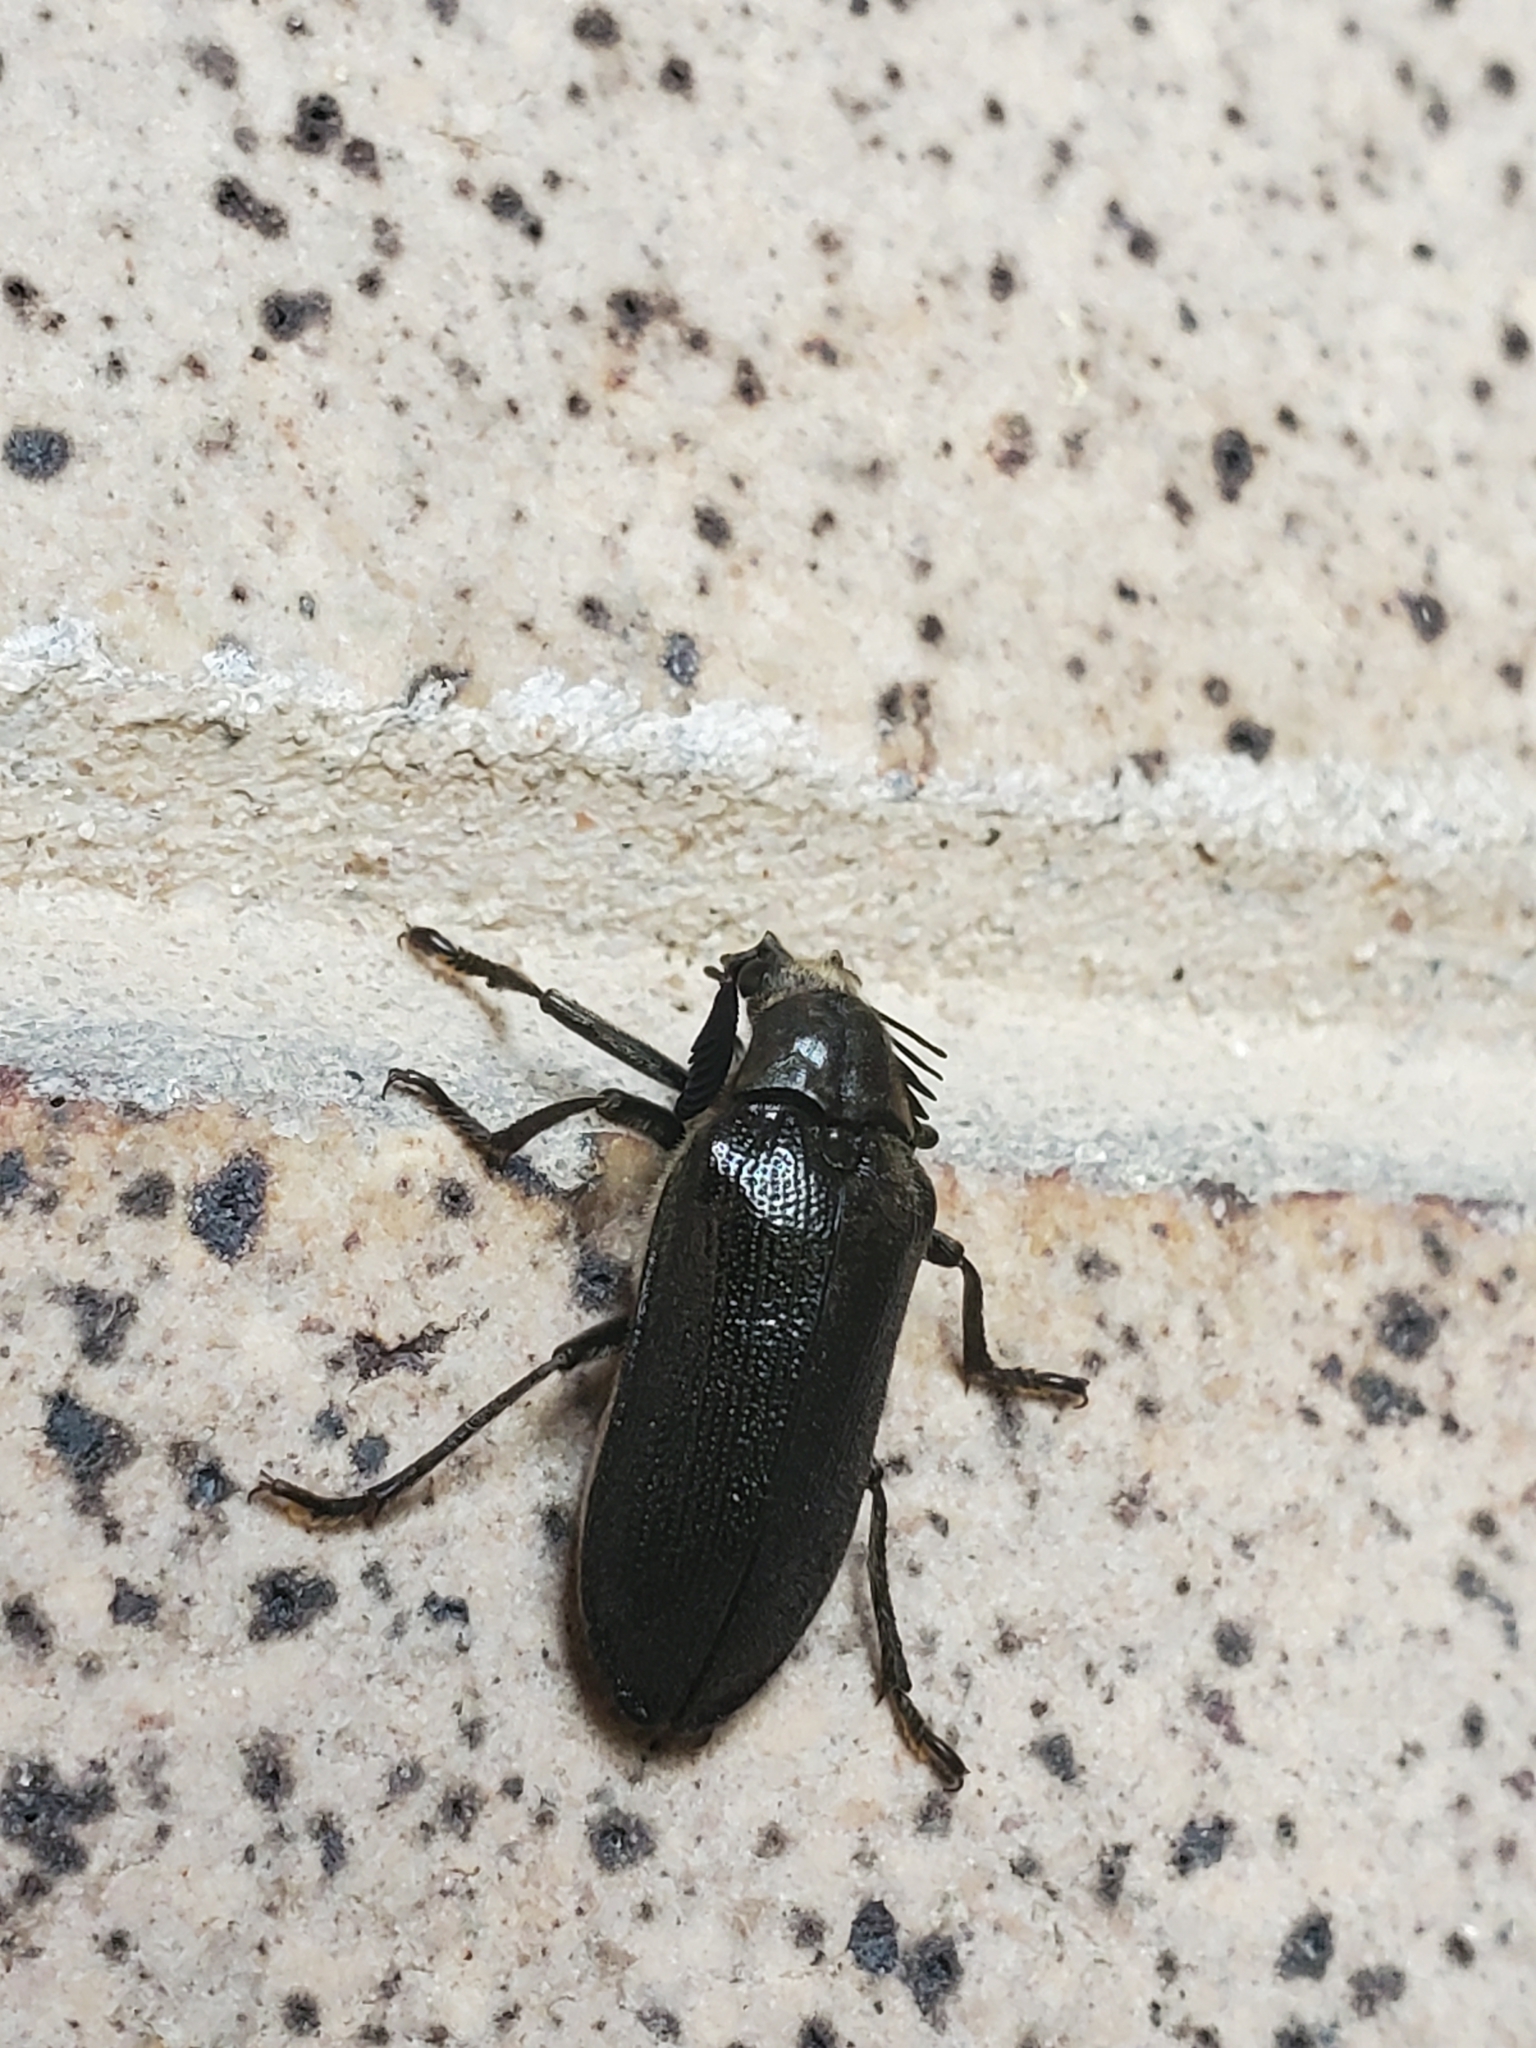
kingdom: Animalia
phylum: Arthropoda
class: Insecta
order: Coleoptera
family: Rhipiceridae
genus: Sandalus
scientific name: Sandalus niger
